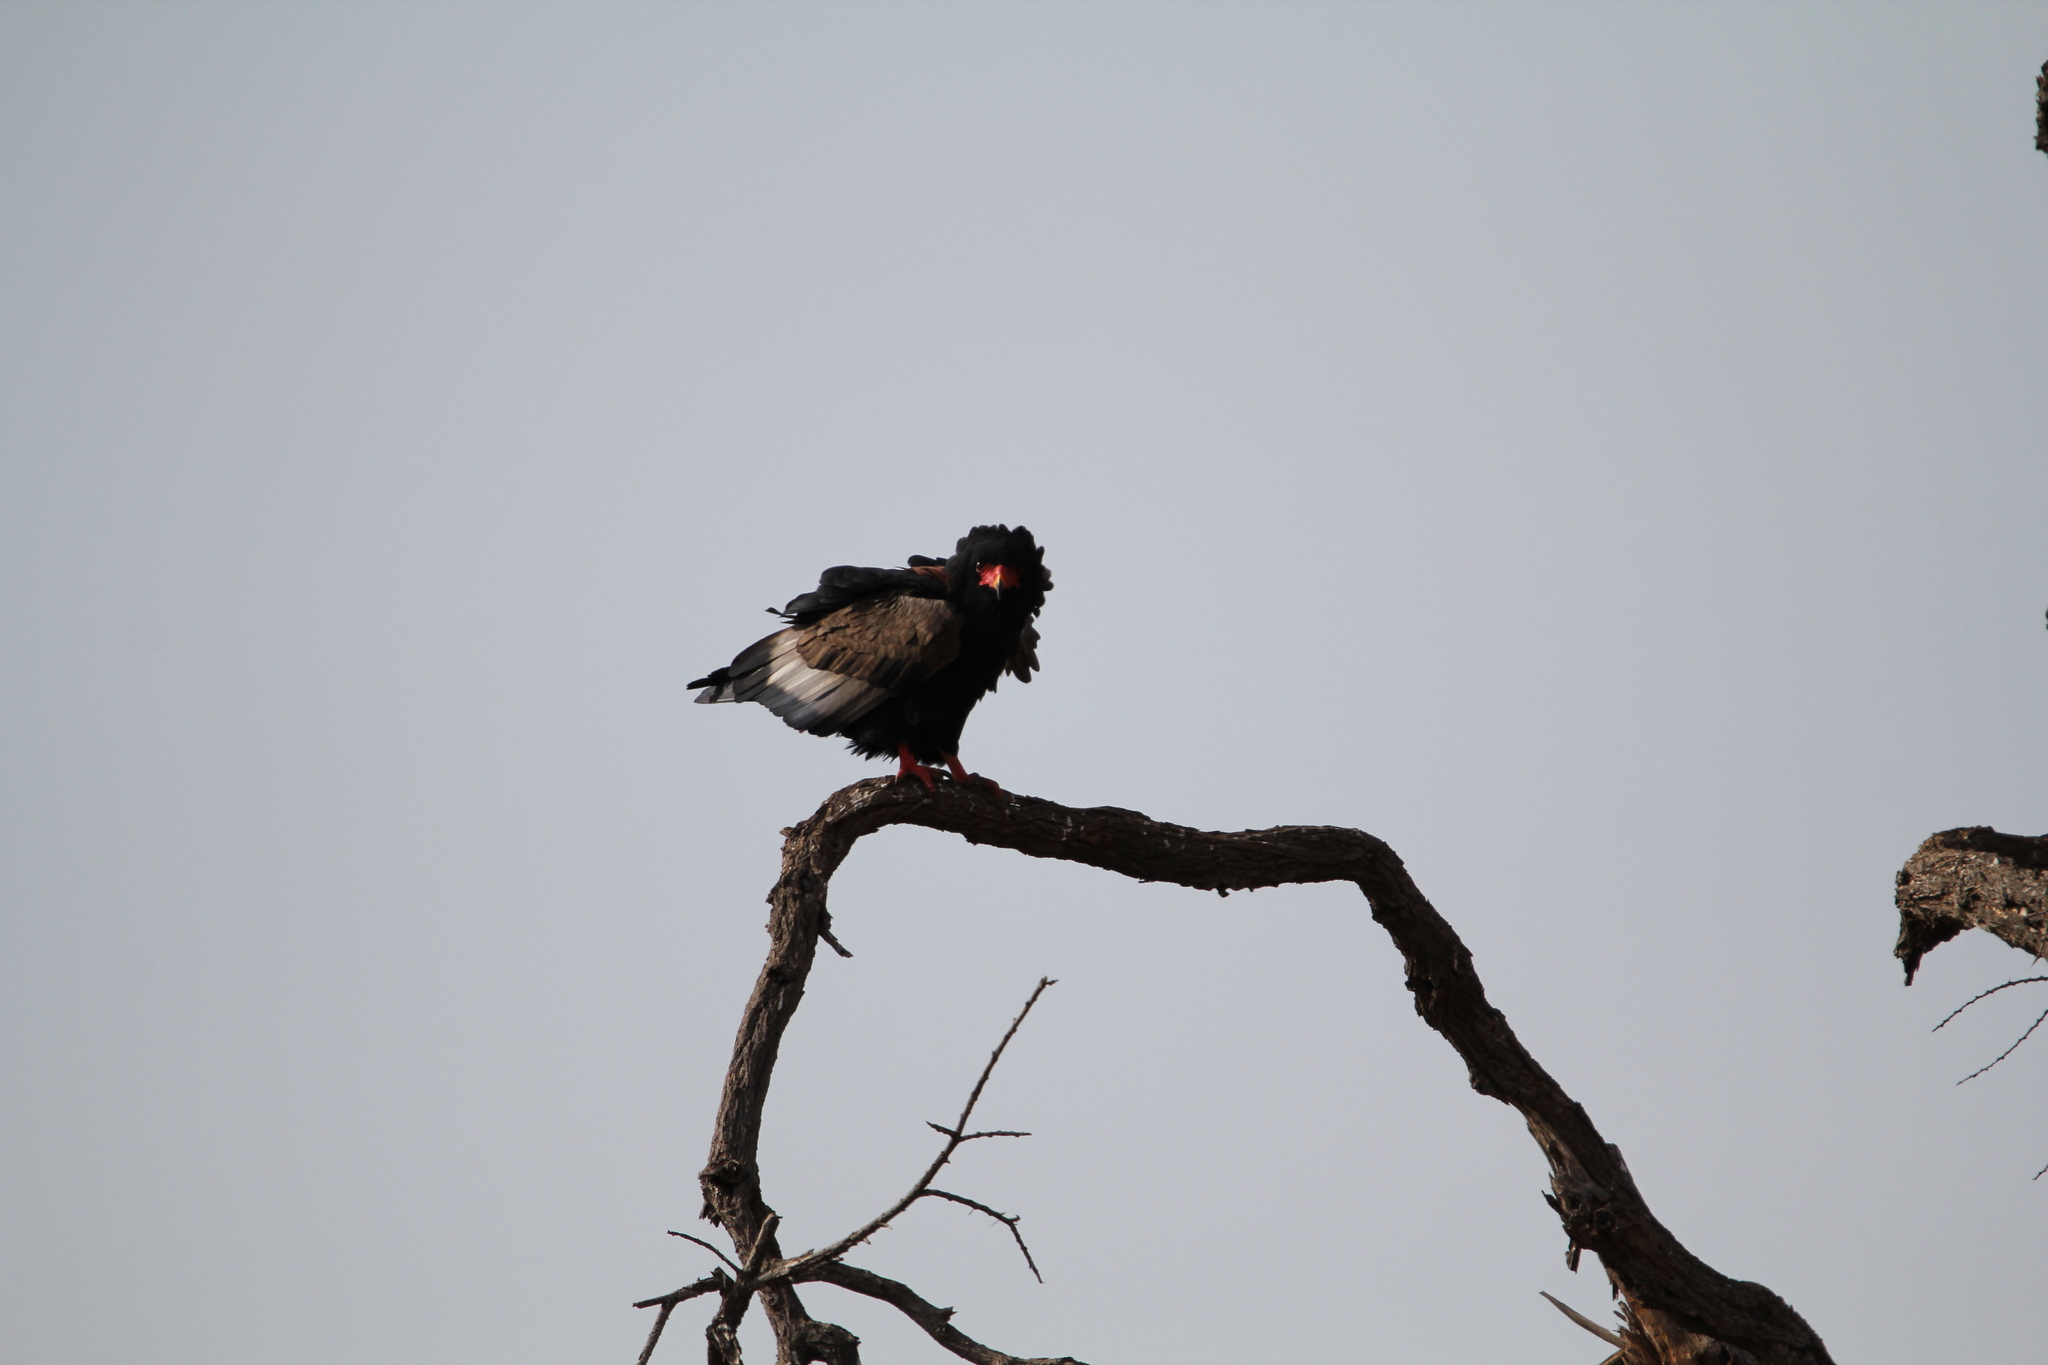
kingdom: Animalia
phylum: Chordata
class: Aves
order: Accipitriformes
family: Accipitridae
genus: Terathopius
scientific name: Terathopius ecaudatus
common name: Bateleur
